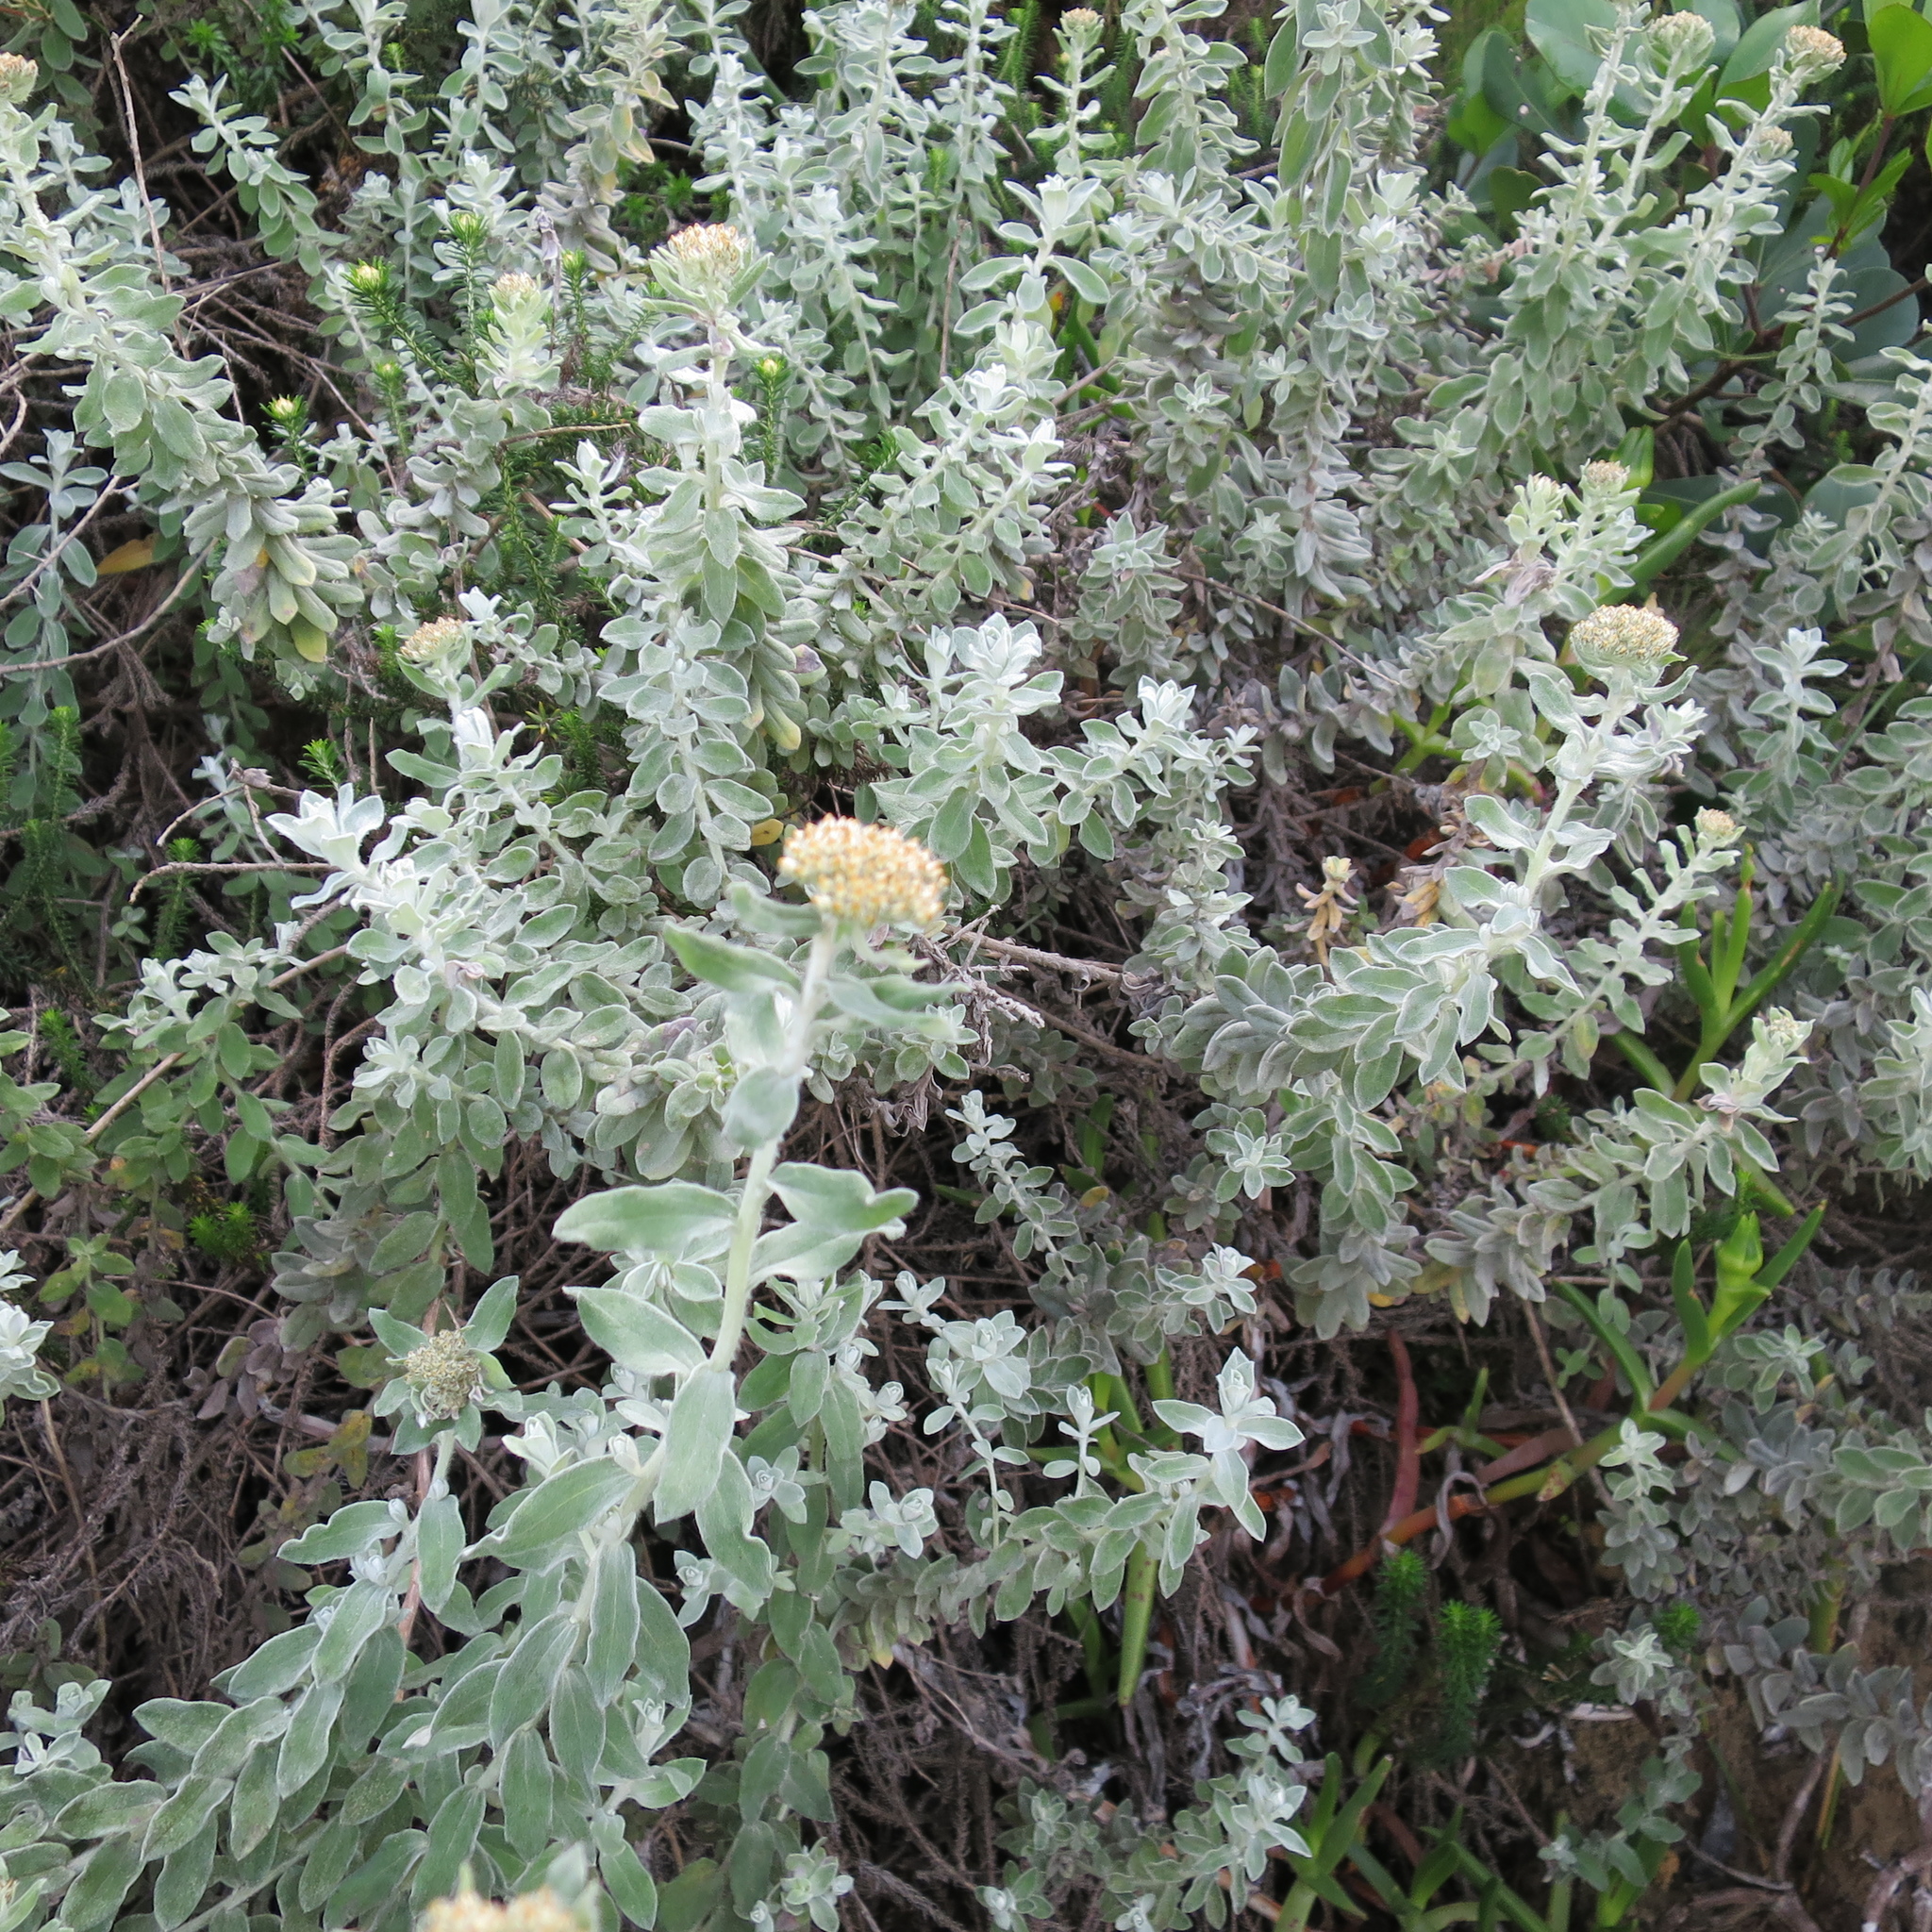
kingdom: Plantae
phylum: Tracheophyta
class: Magnoliopsida
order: Asterales
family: Asteraceae
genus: Helichrysum
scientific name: Helichrysum dasyanthum
